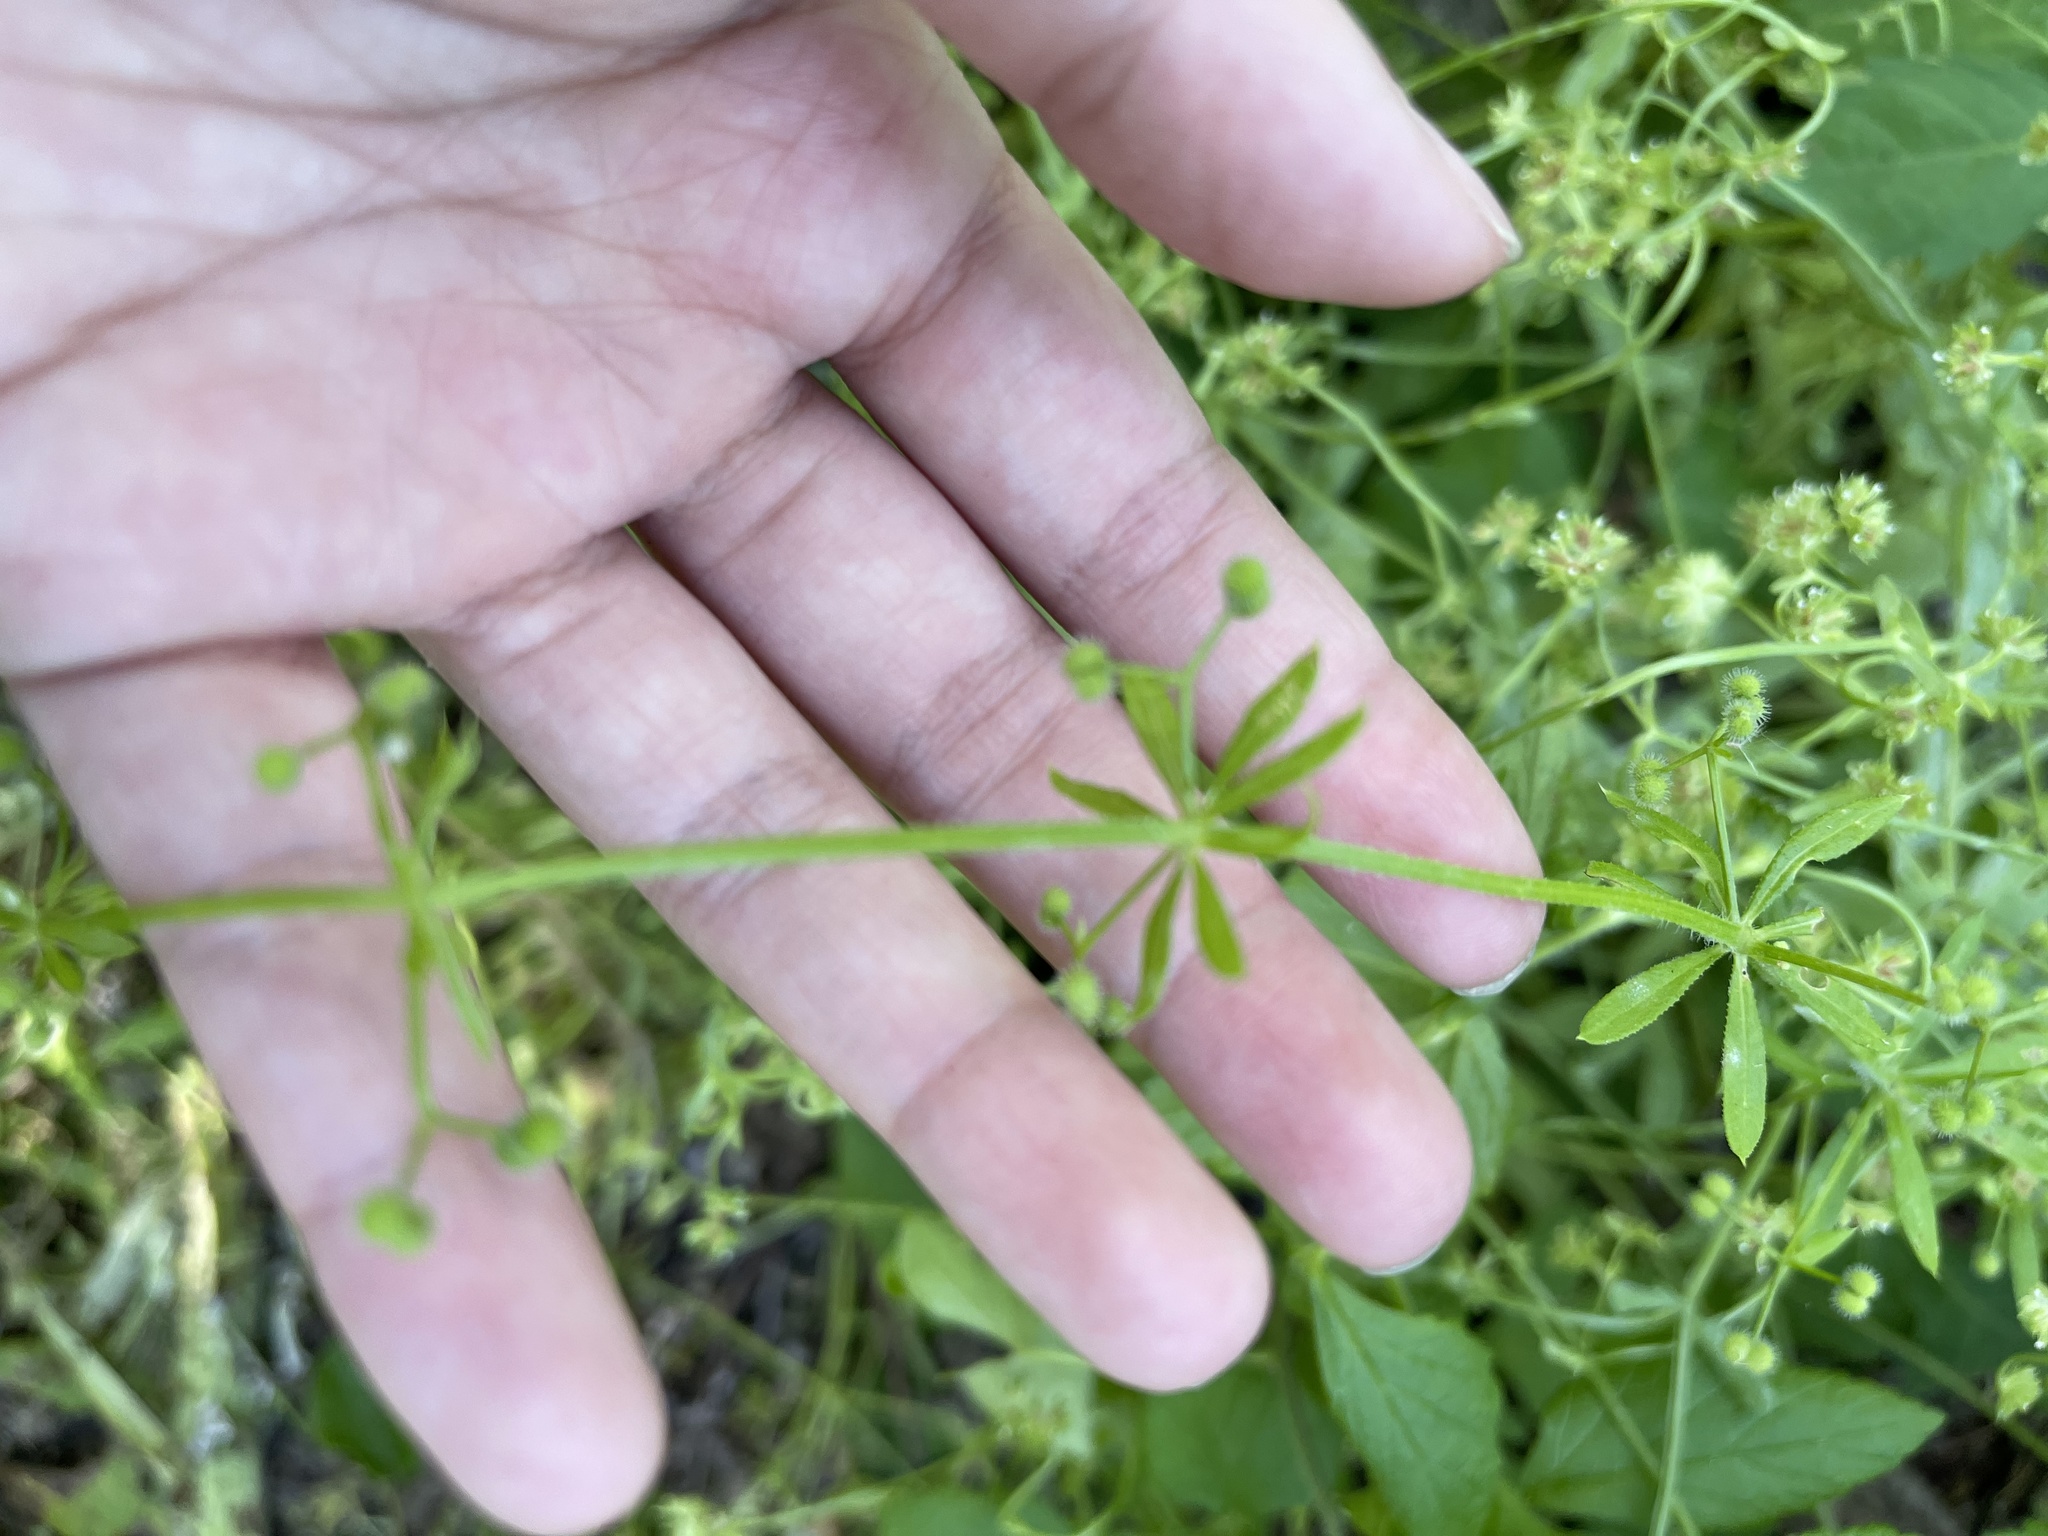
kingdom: Plantae
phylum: Tracheophyta
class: Magnoliopsida
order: Gentianales
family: Rubiaceae
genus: Galium
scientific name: Galium aparine
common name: Cleavers
